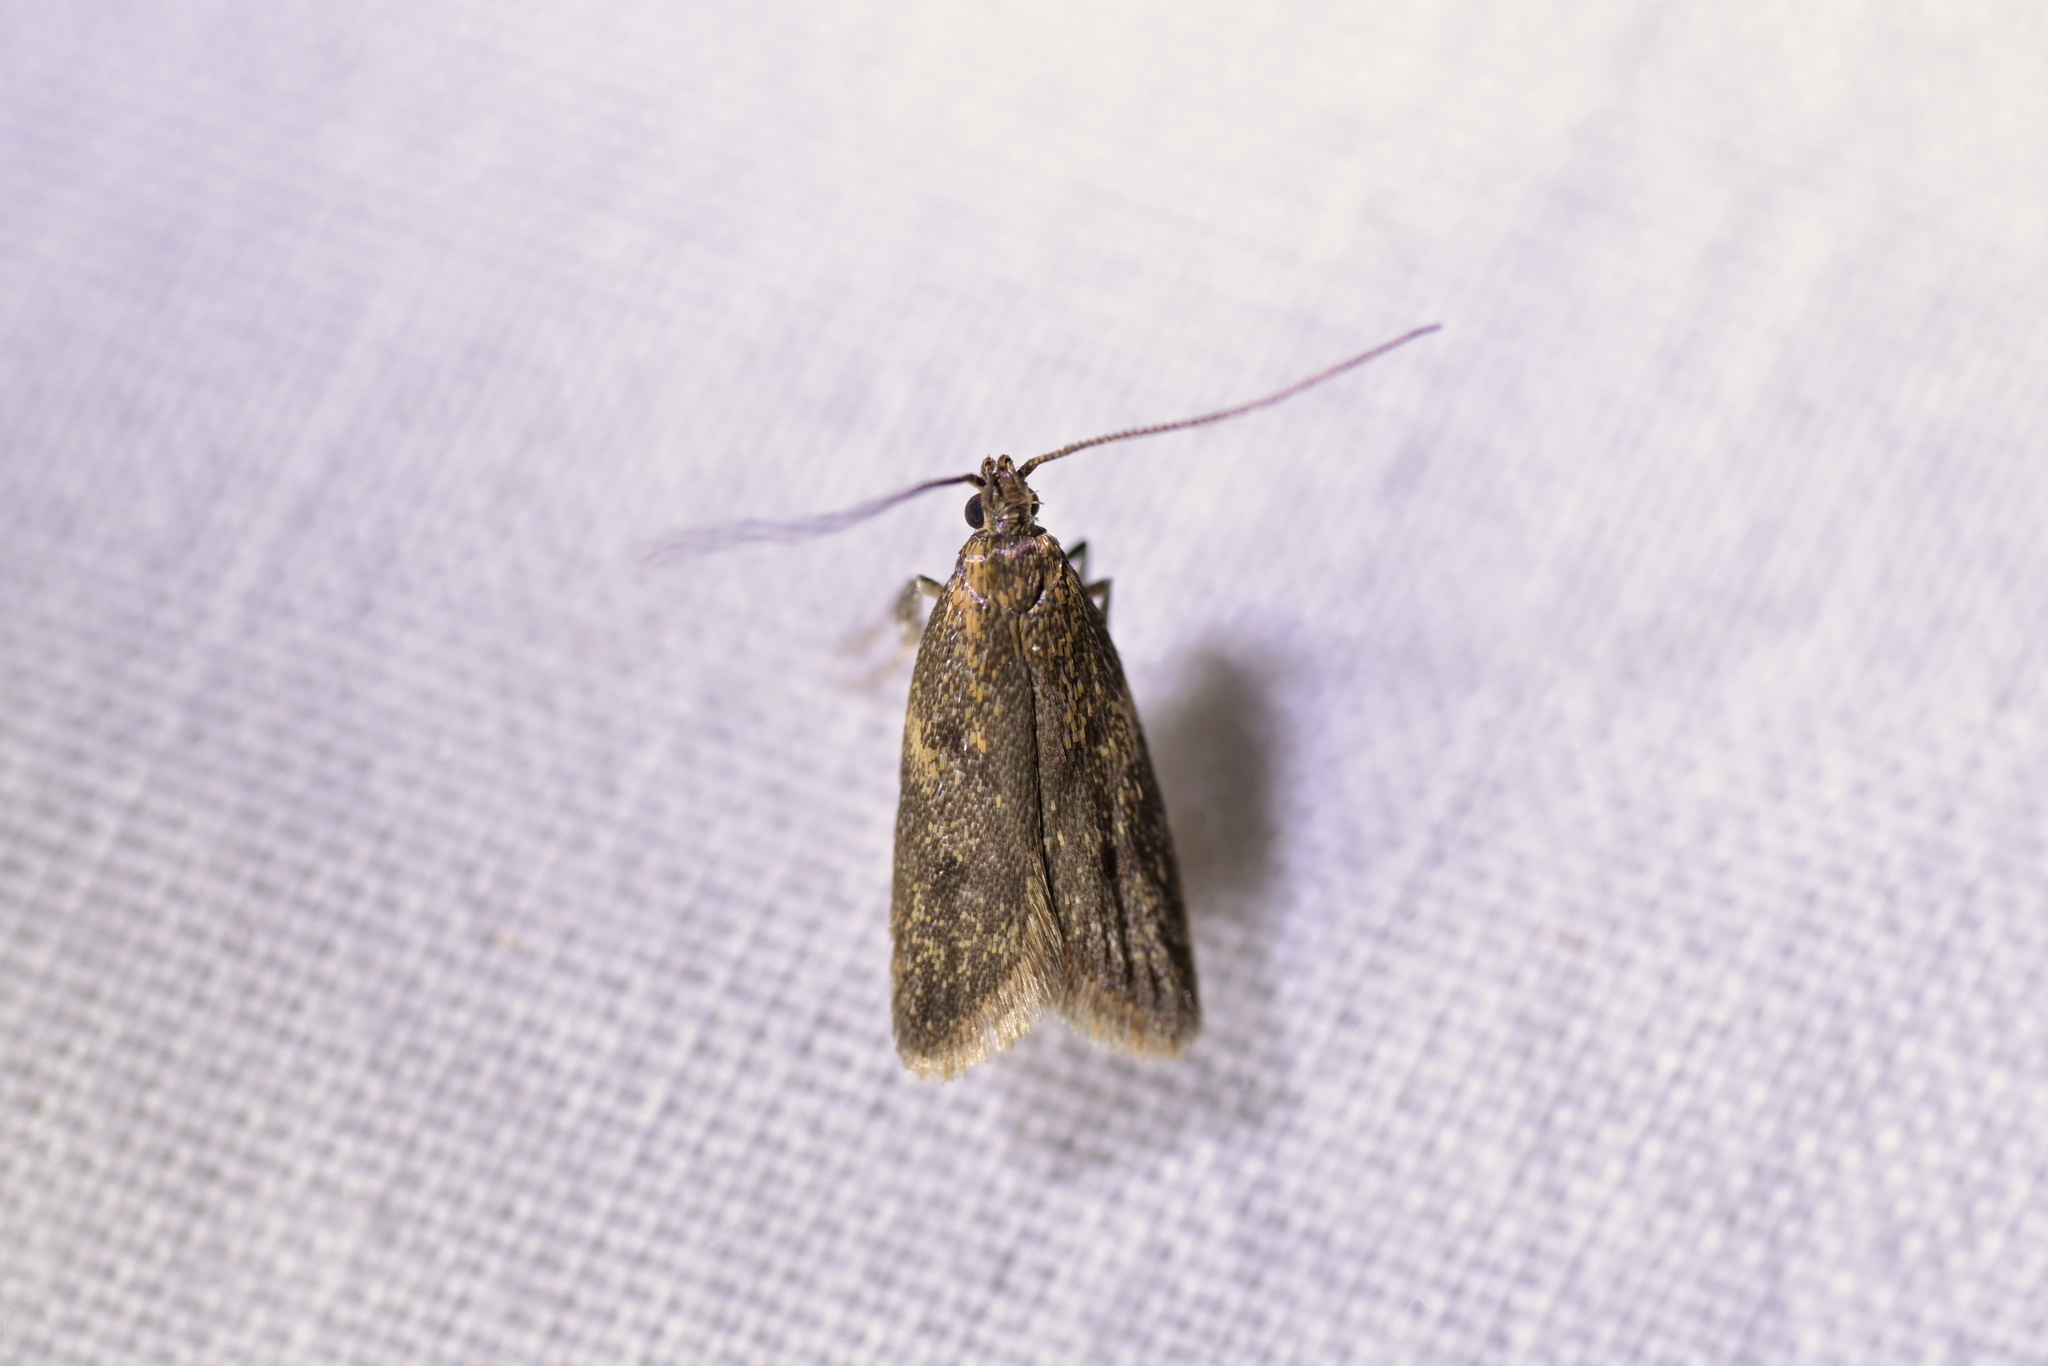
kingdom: Animalia
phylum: Arthropoda
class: Insecta
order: Lepidoptera
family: Oecophoridae
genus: Gymnobathra
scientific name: Gymnobathra tholodella
